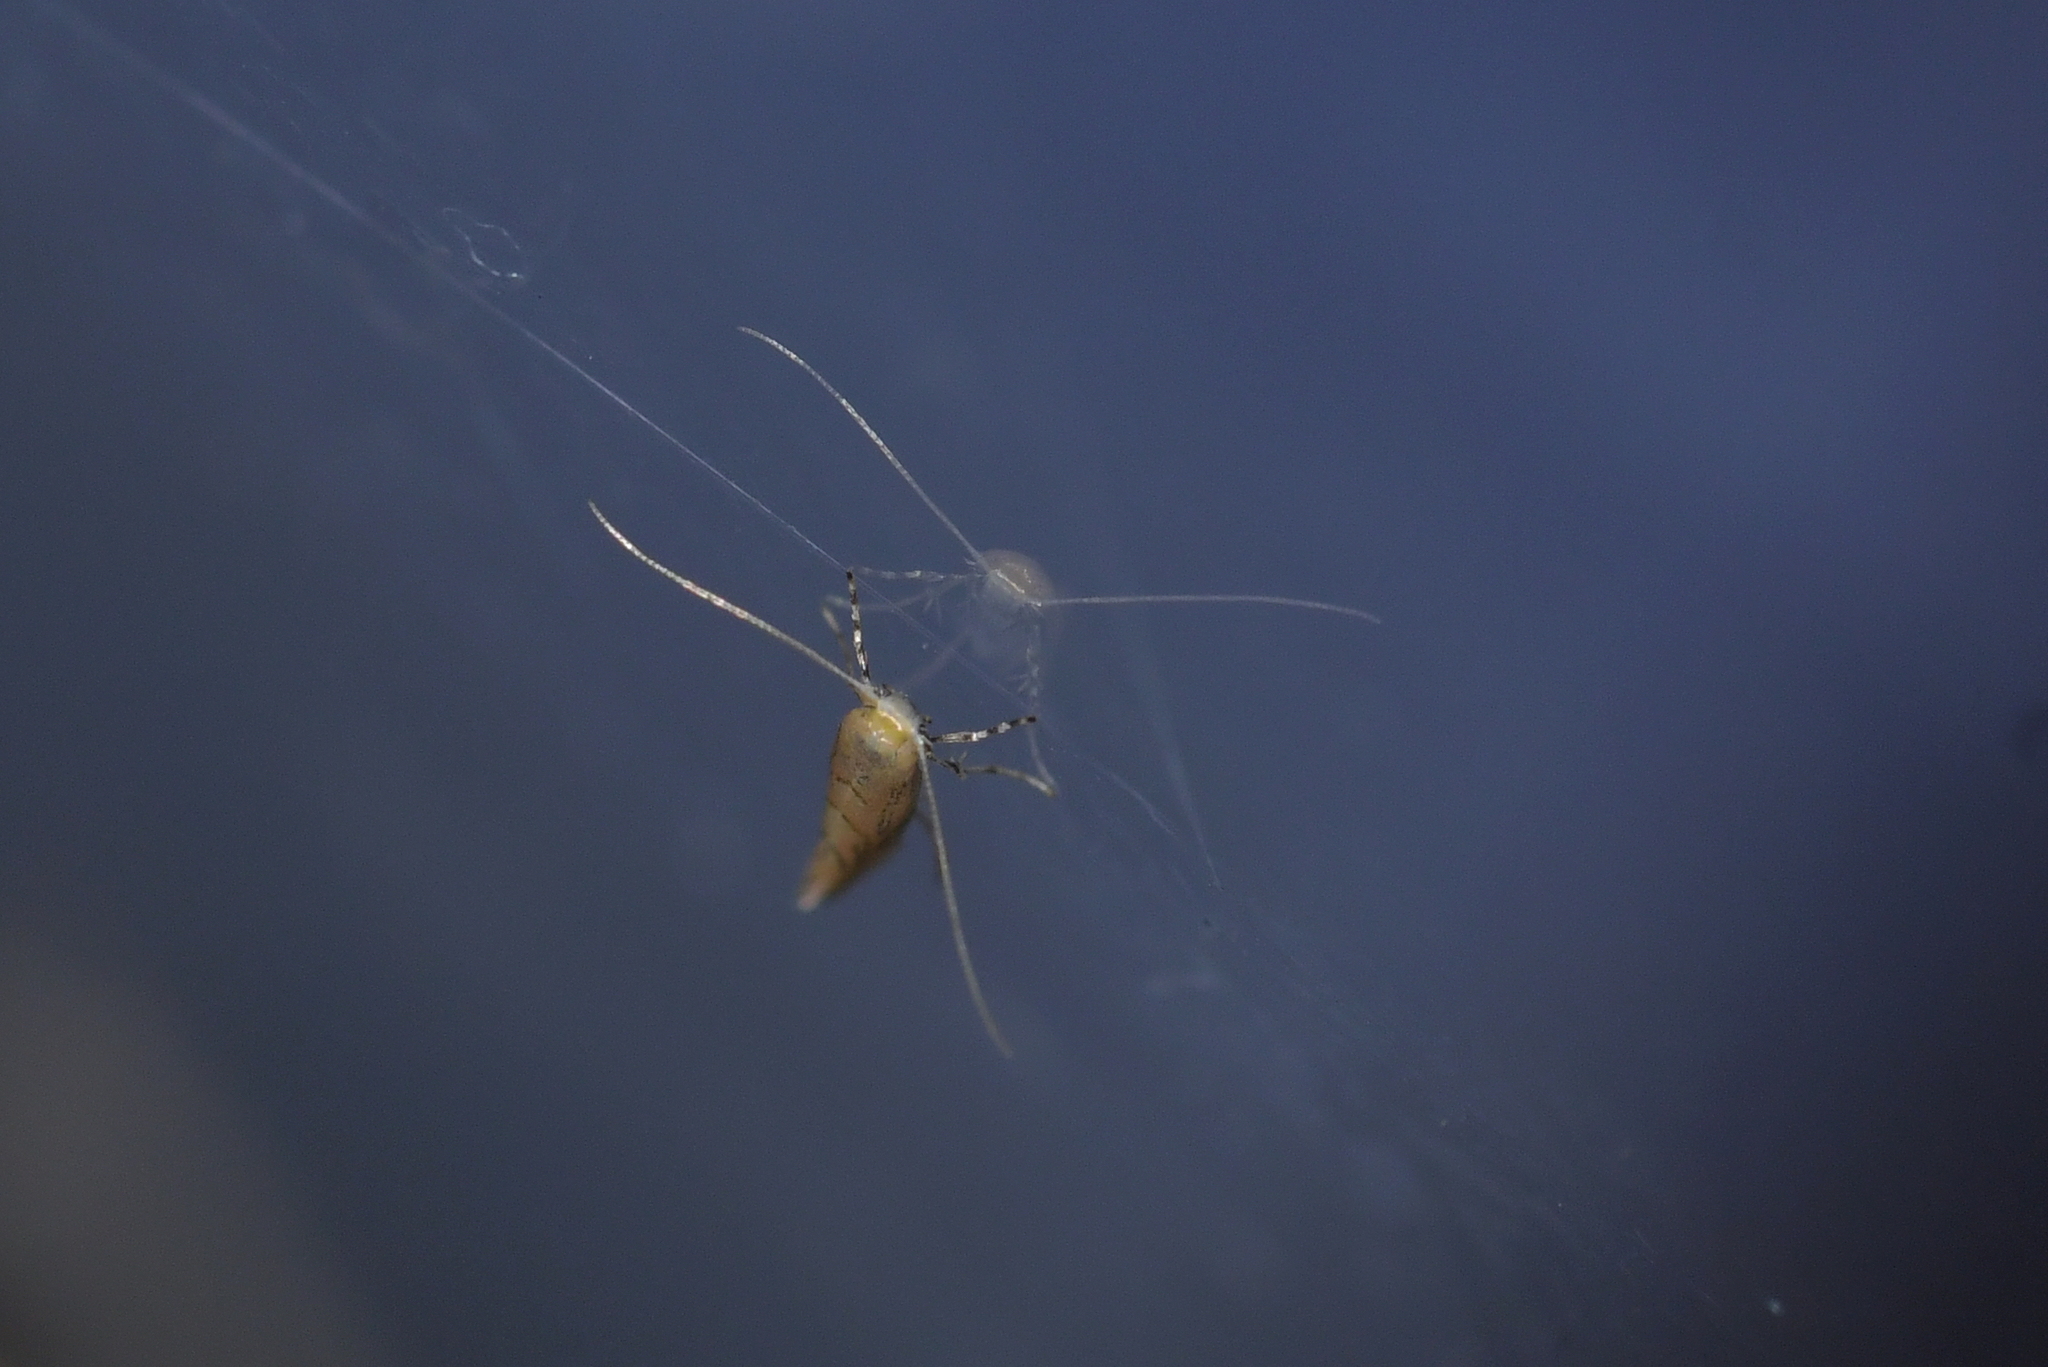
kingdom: Animalia
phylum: Arthropoda
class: Insecta
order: Lepidoptera
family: Gracillariidae
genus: Phyllonorycter
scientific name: Phyllonorycter messaniella
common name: Garden midget
